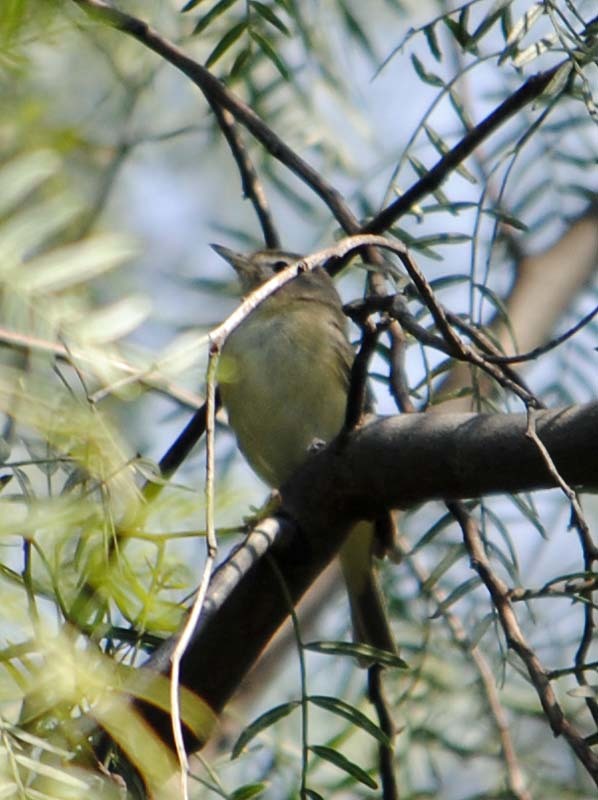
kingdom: Animalia
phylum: Chordata
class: Aves
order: Passeriformes
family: Vireonidae
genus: Vireo
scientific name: Vireo gilvus
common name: Warbling vireo
